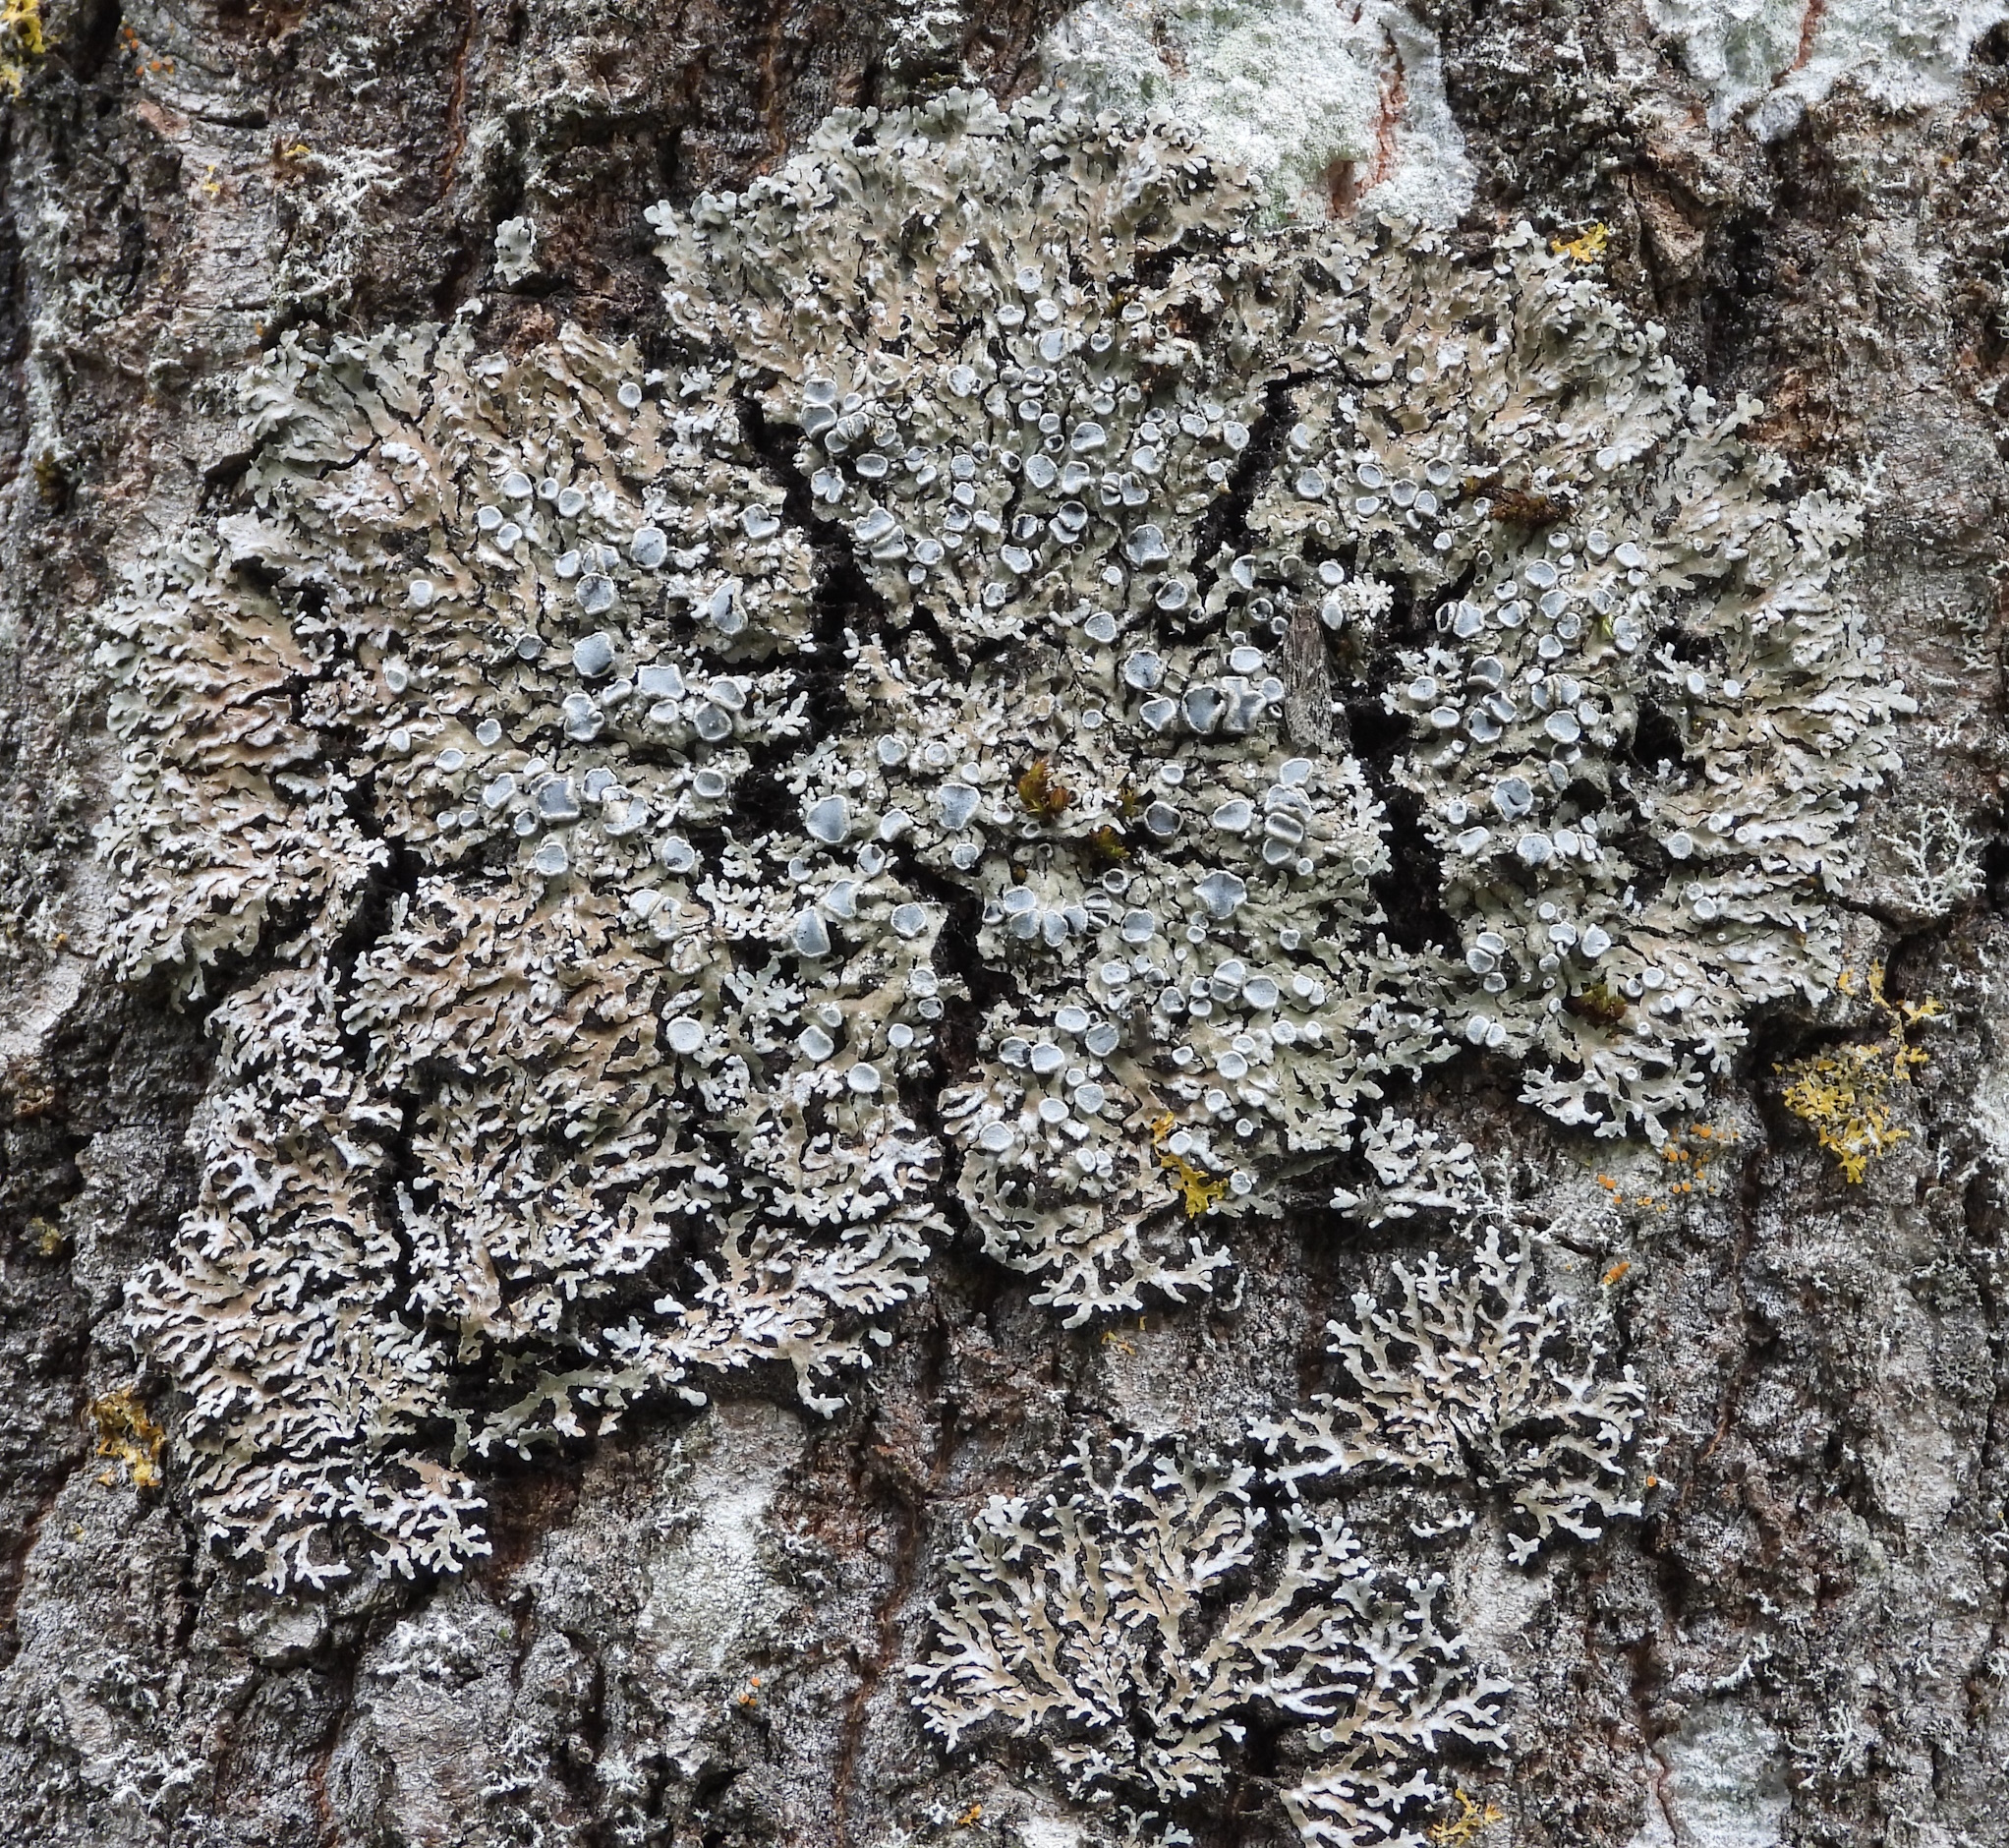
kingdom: Fungi
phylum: Ascomycota
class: Lecanoromycetes
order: Caliciales
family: Physciaceae
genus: Physconia
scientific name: Physconia distorta
